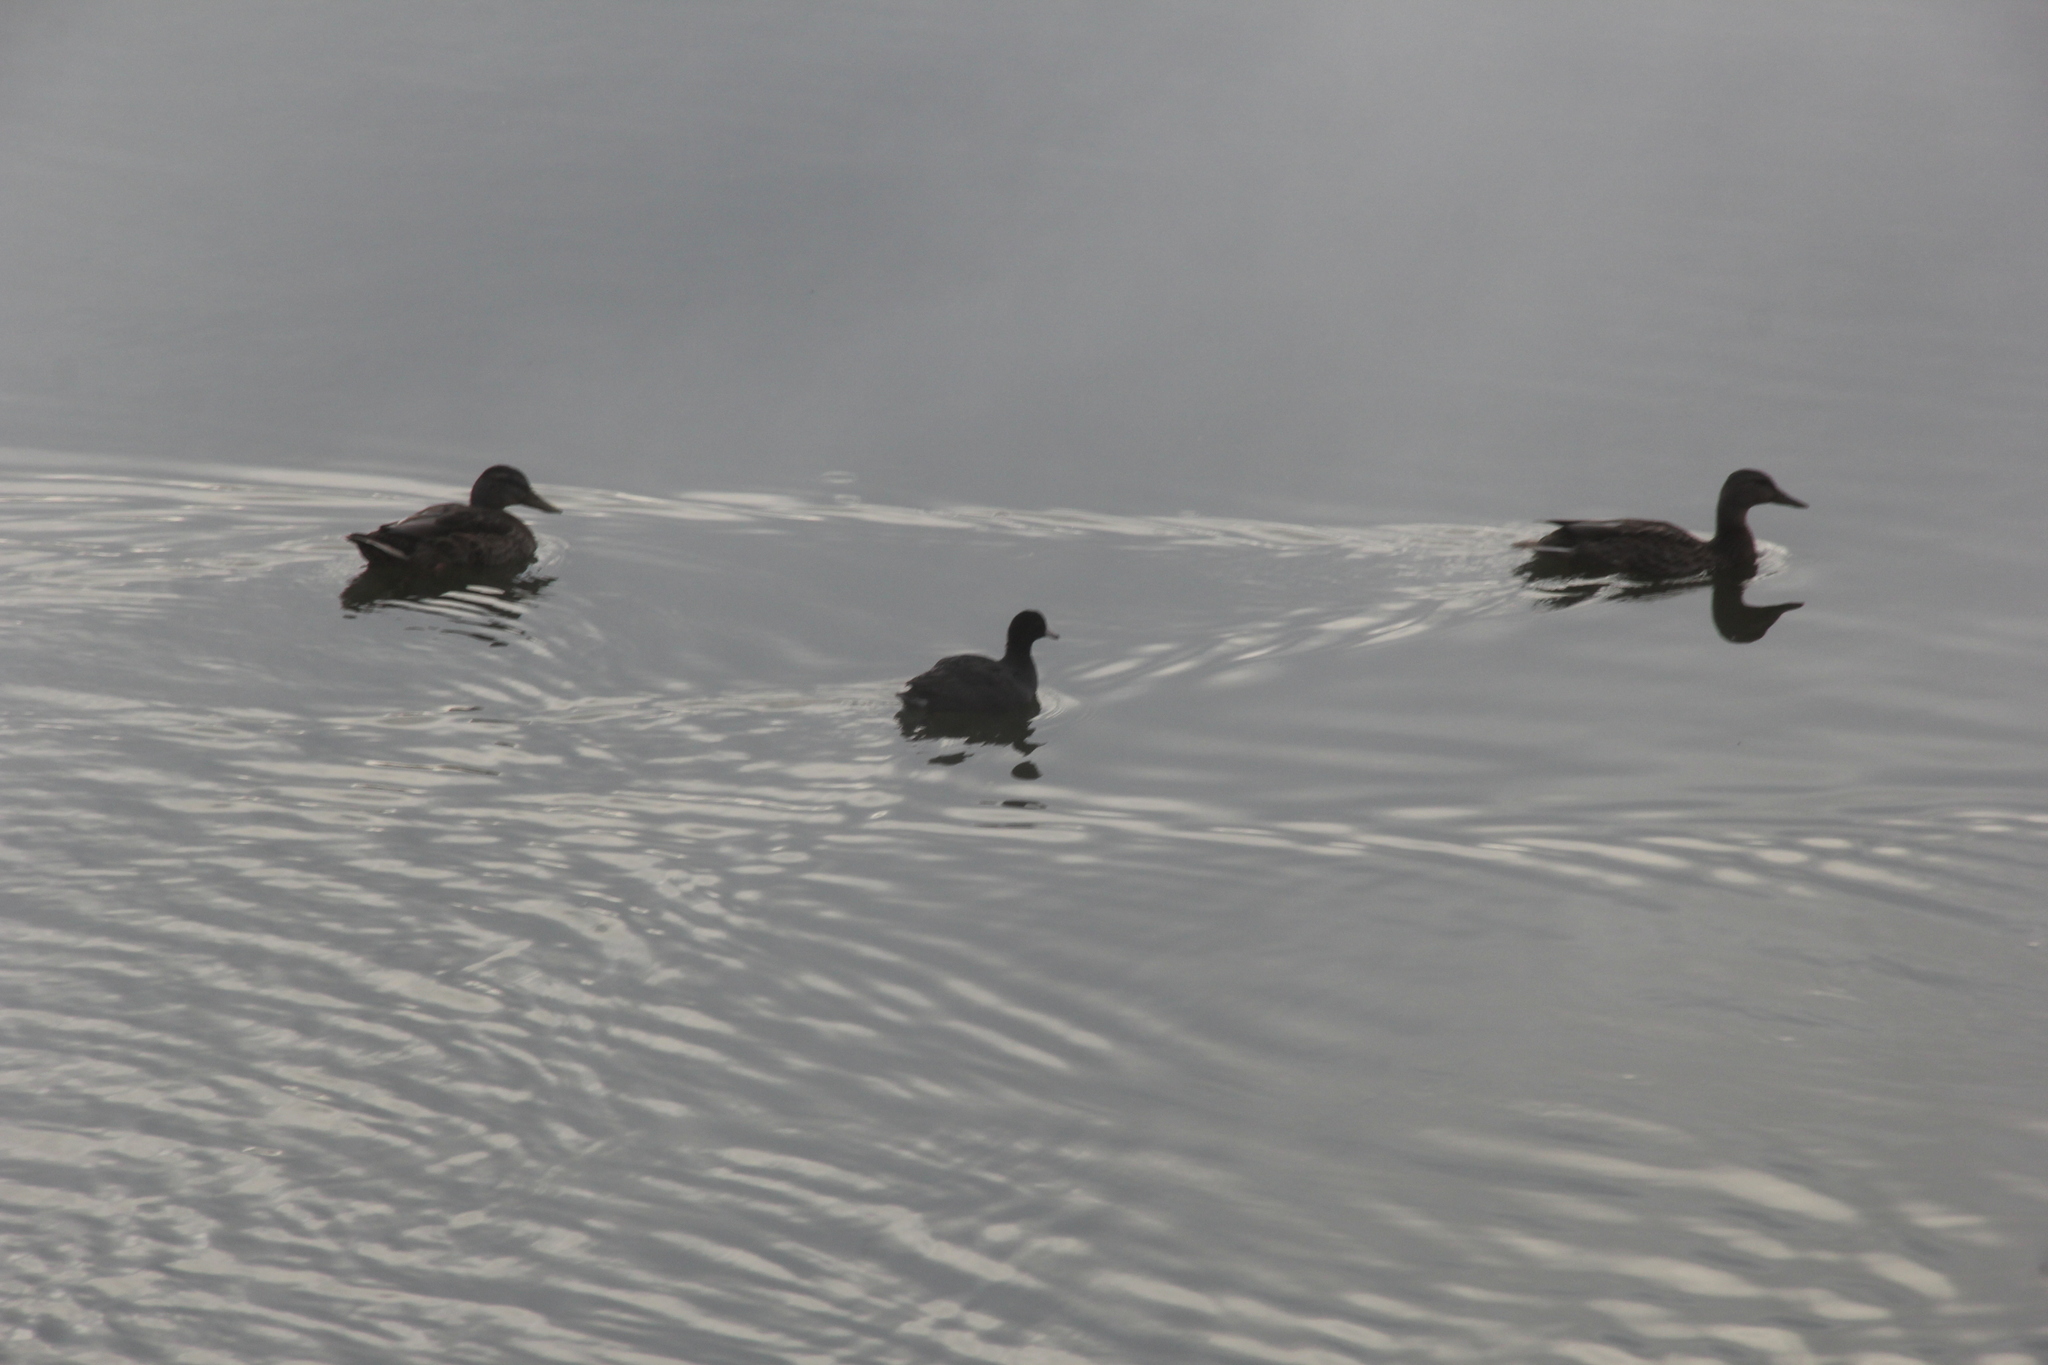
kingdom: Animalia
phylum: Chordata
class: Aves
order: Anseriformes
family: Anatidae
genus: Anas
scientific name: Anas platyrhynchos
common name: Mallard
